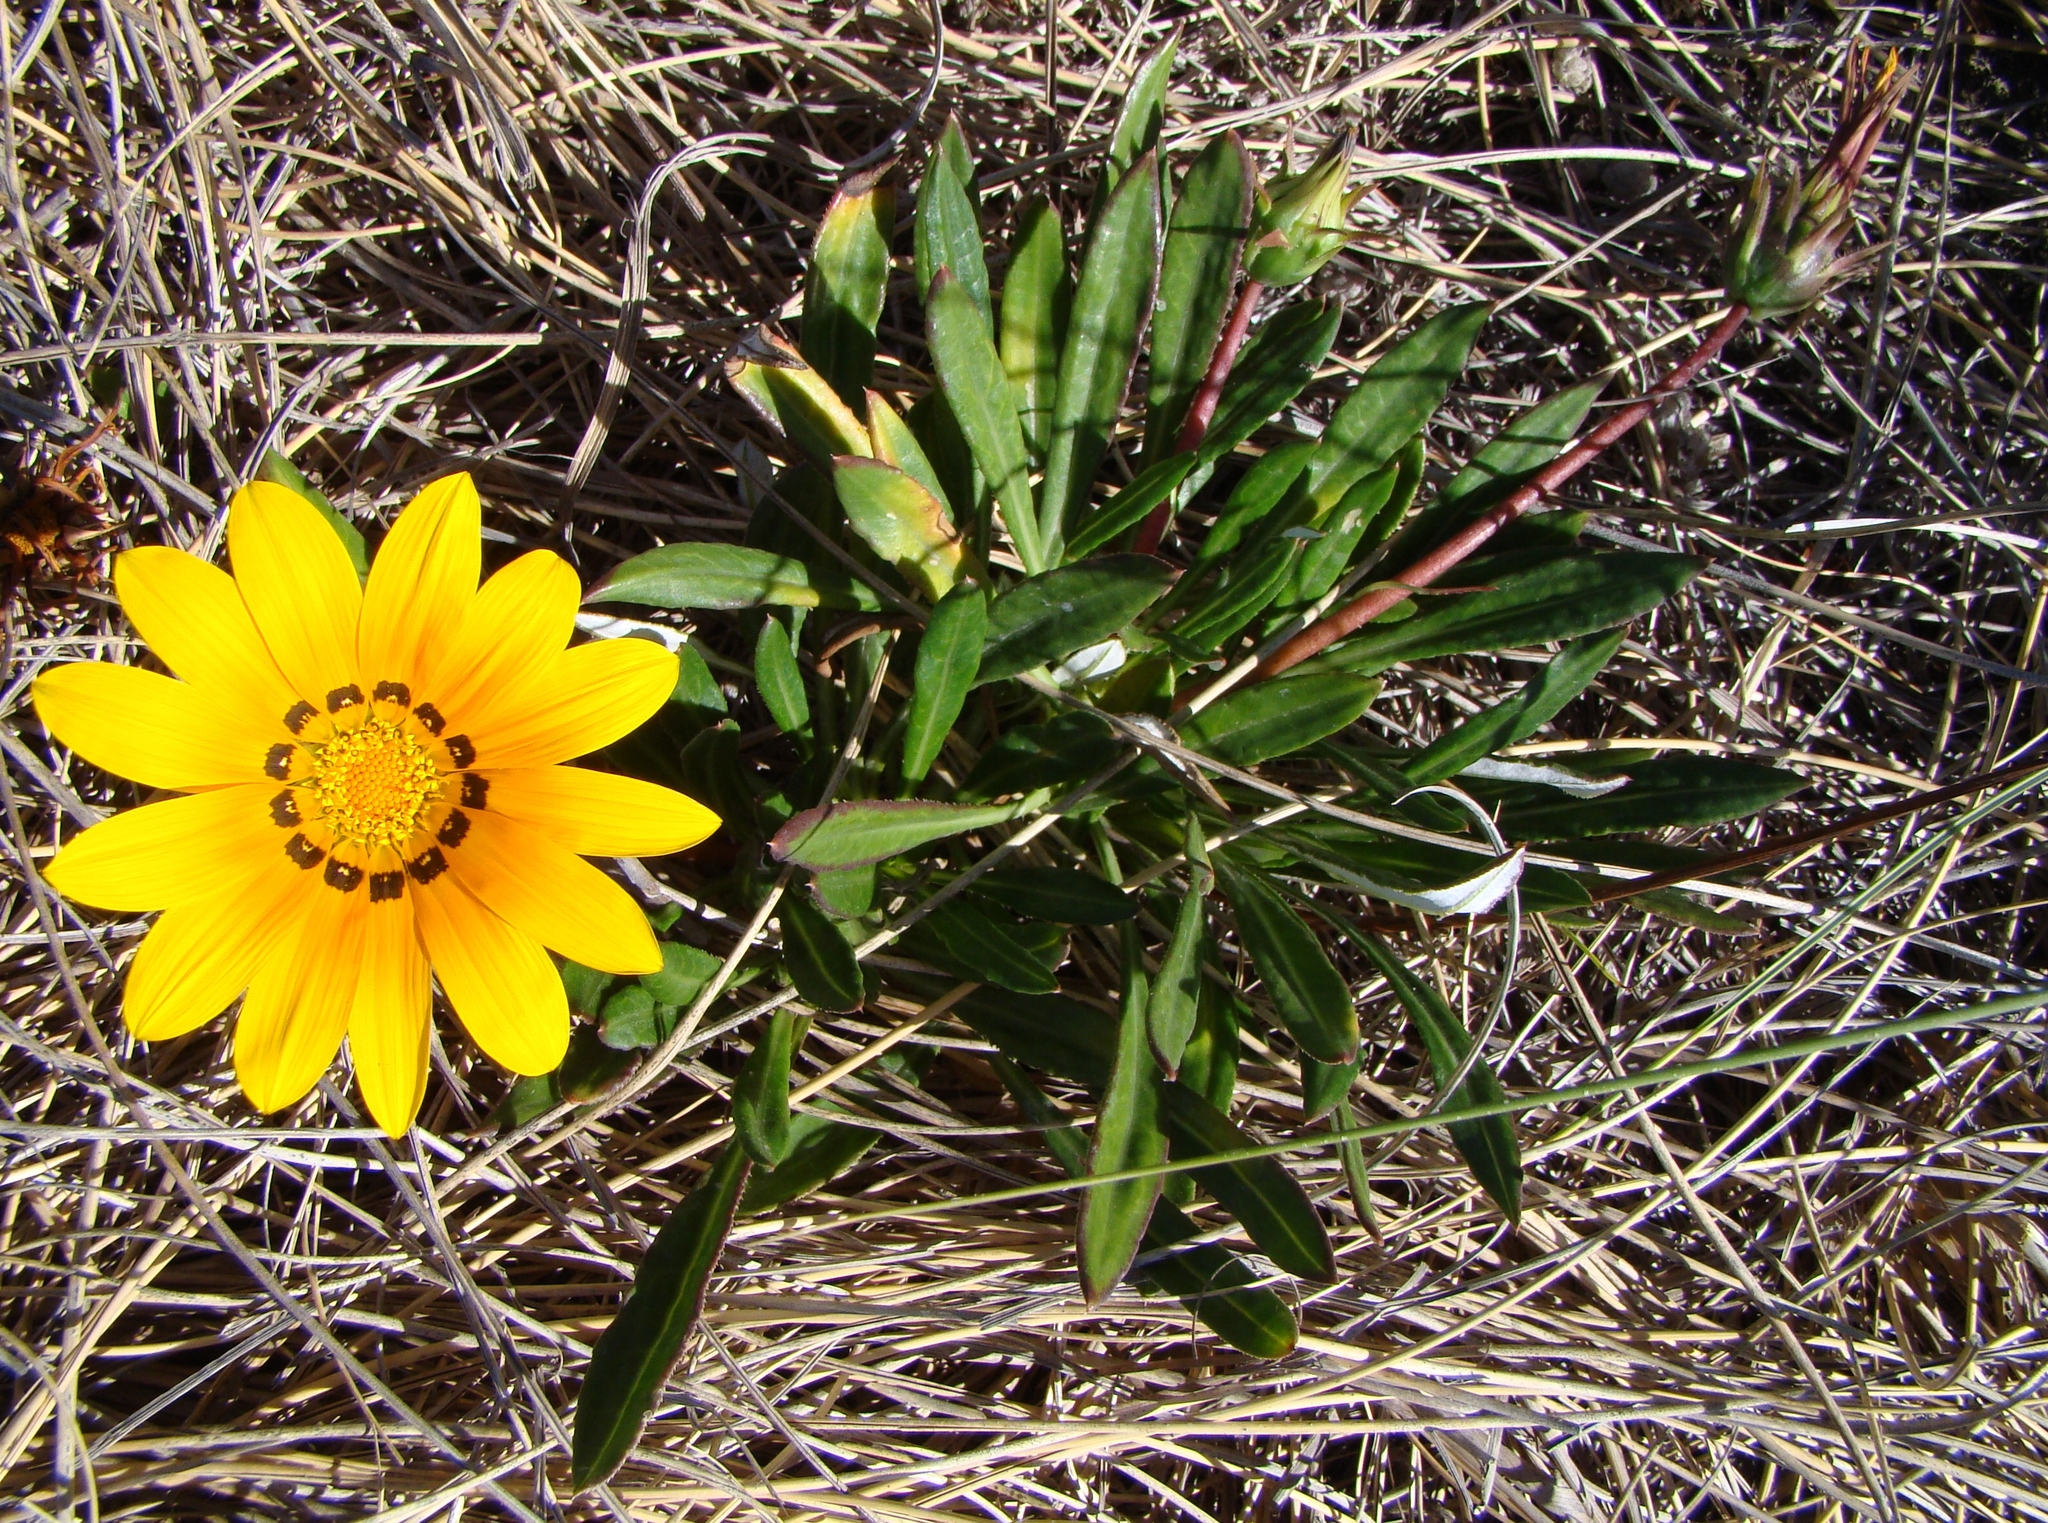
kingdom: Plantae
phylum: Tracheophyta
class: Magnoliopsida
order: Asterales
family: Asteraceae
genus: Gazania
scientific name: Gazania rigens
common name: Treasureflower
